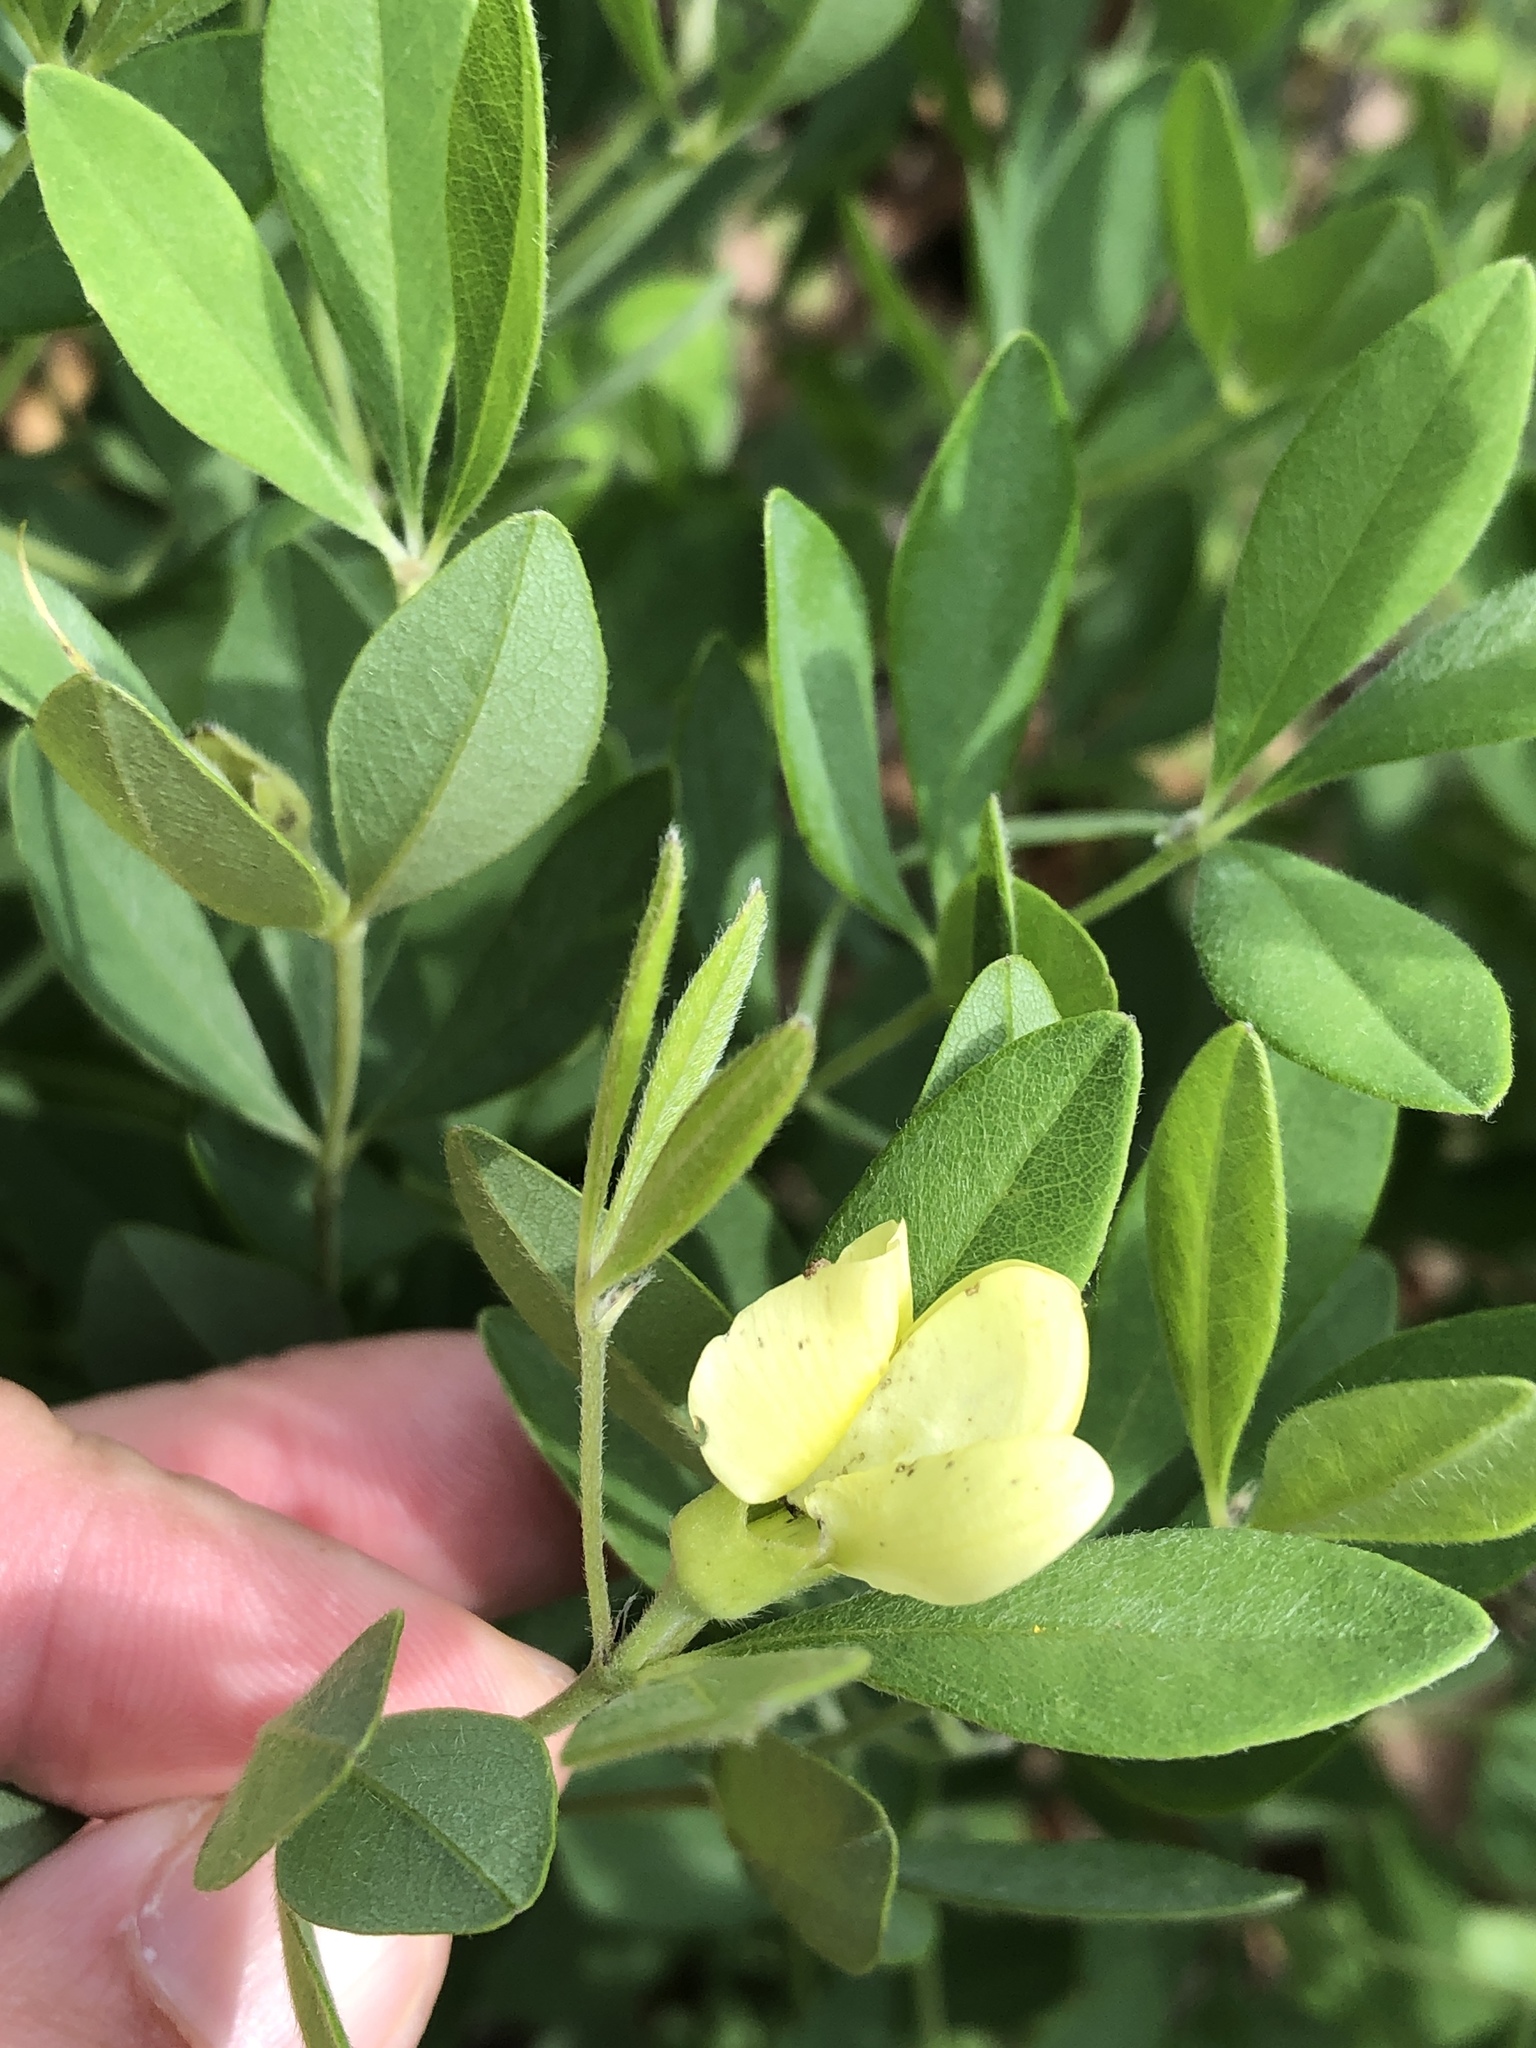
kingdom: Plantae
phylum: Tracheophyta
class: Magnoliopsida
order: Fabales
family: Fabaceae
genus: Baptisia
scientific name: Baptisia nuttalliana
